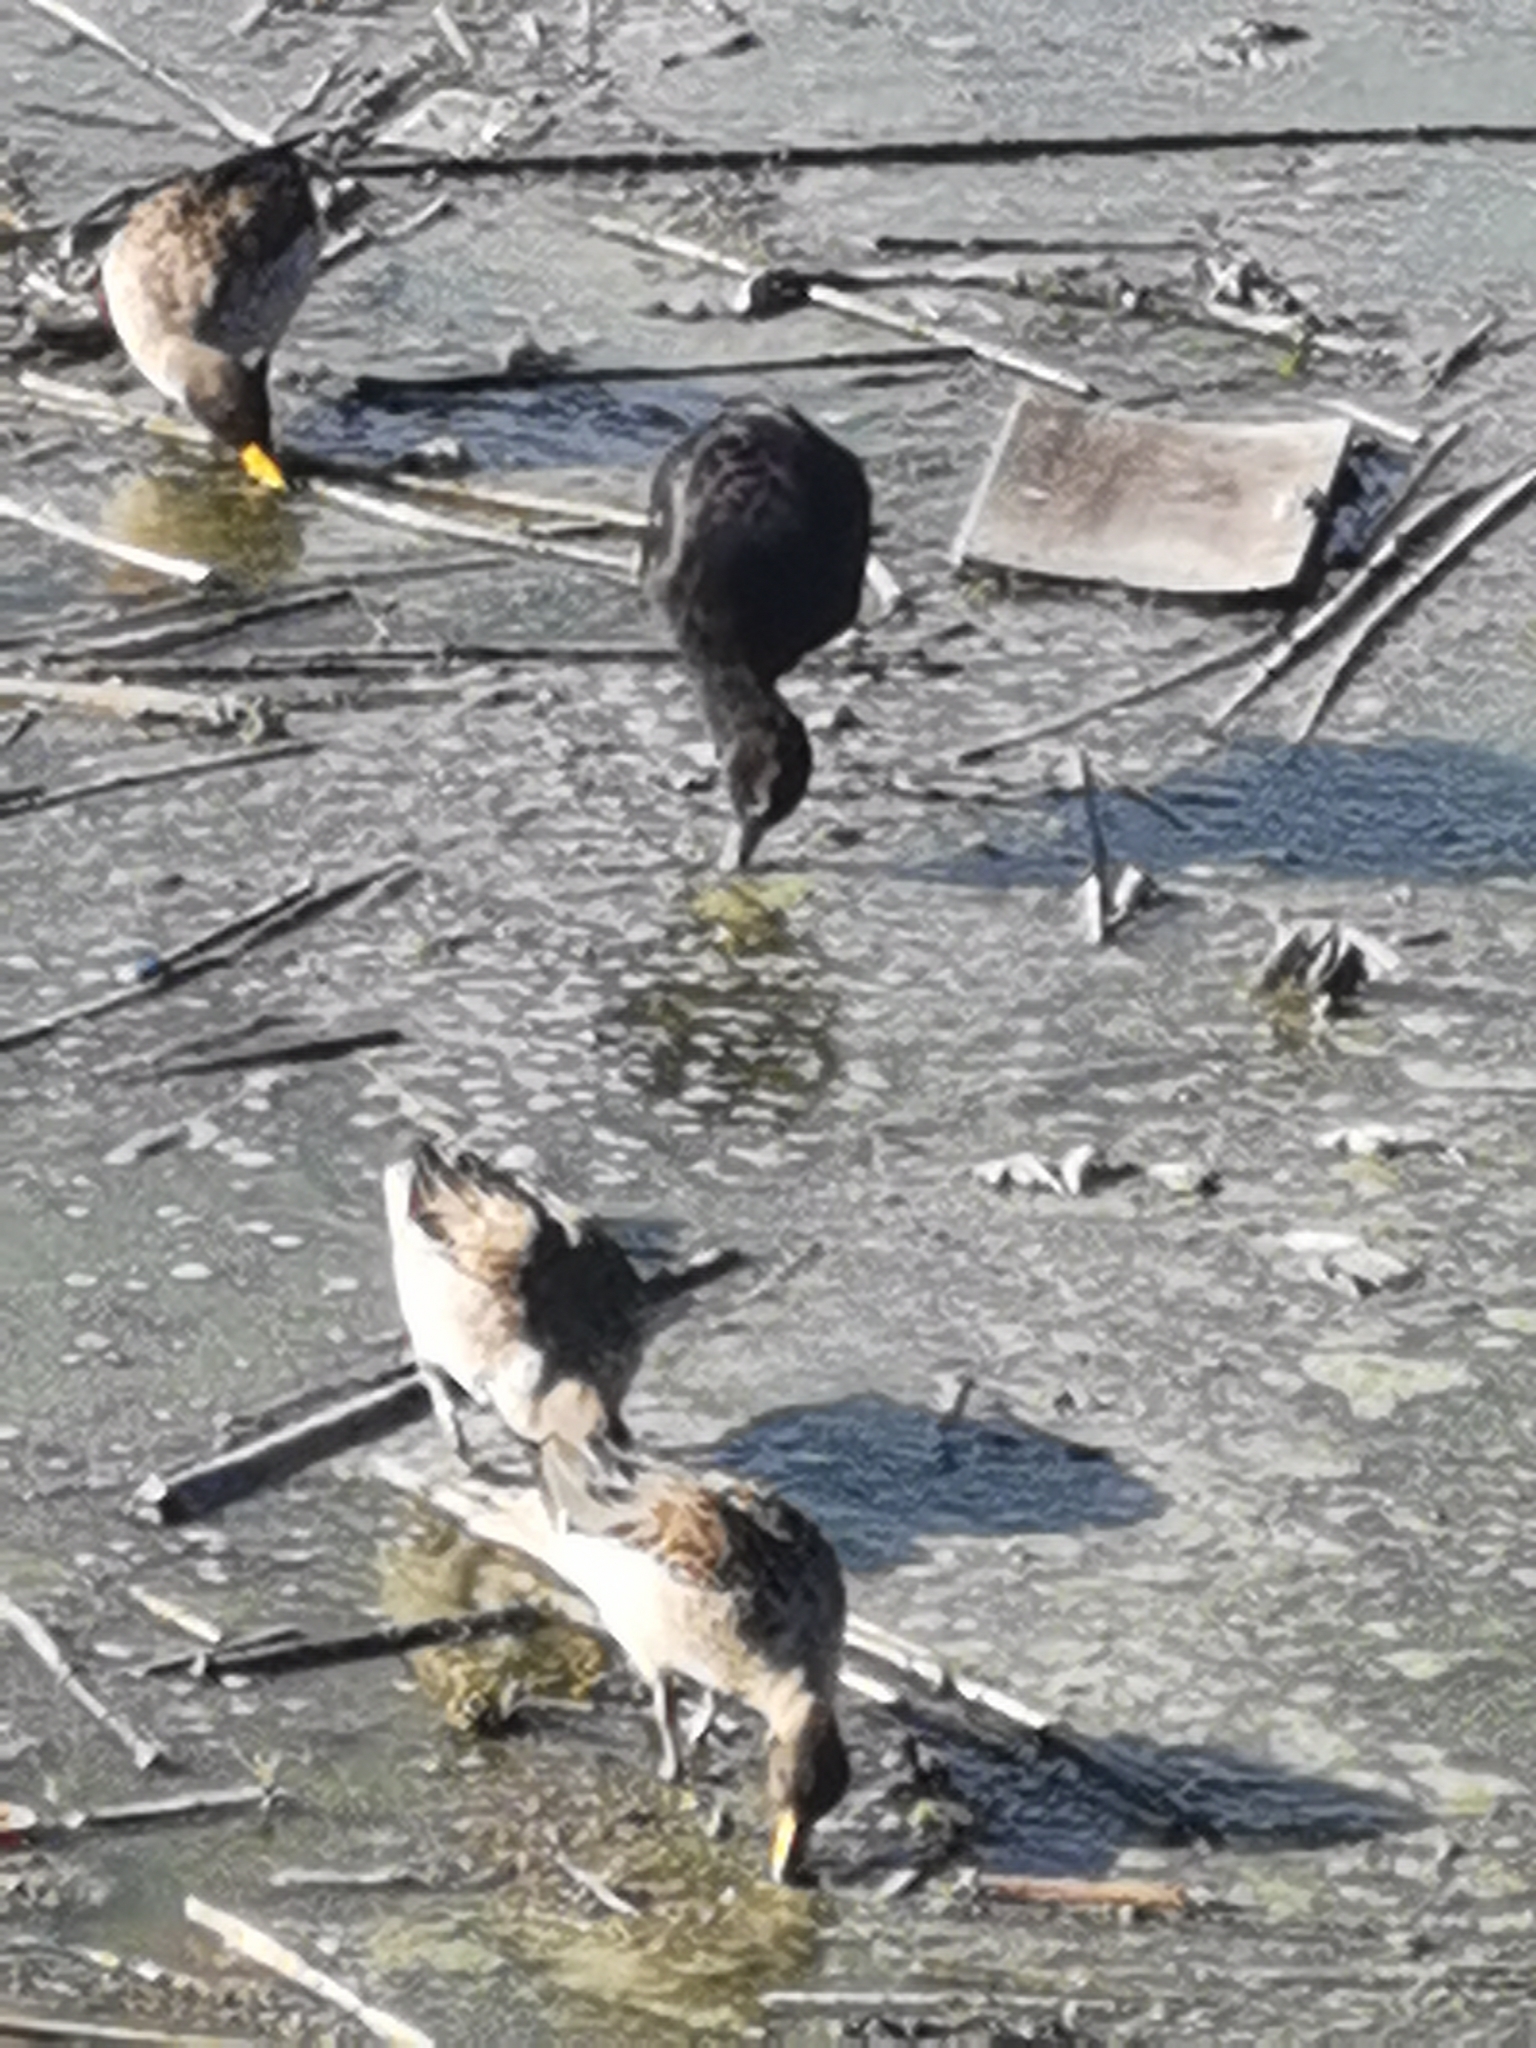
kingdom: Animalia
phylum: Chordata
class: Aves
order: Pelecaniformes
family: Threskiornithidae
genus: Plegadis
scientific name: Plegadis ridgwayi
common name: Puna ibis
